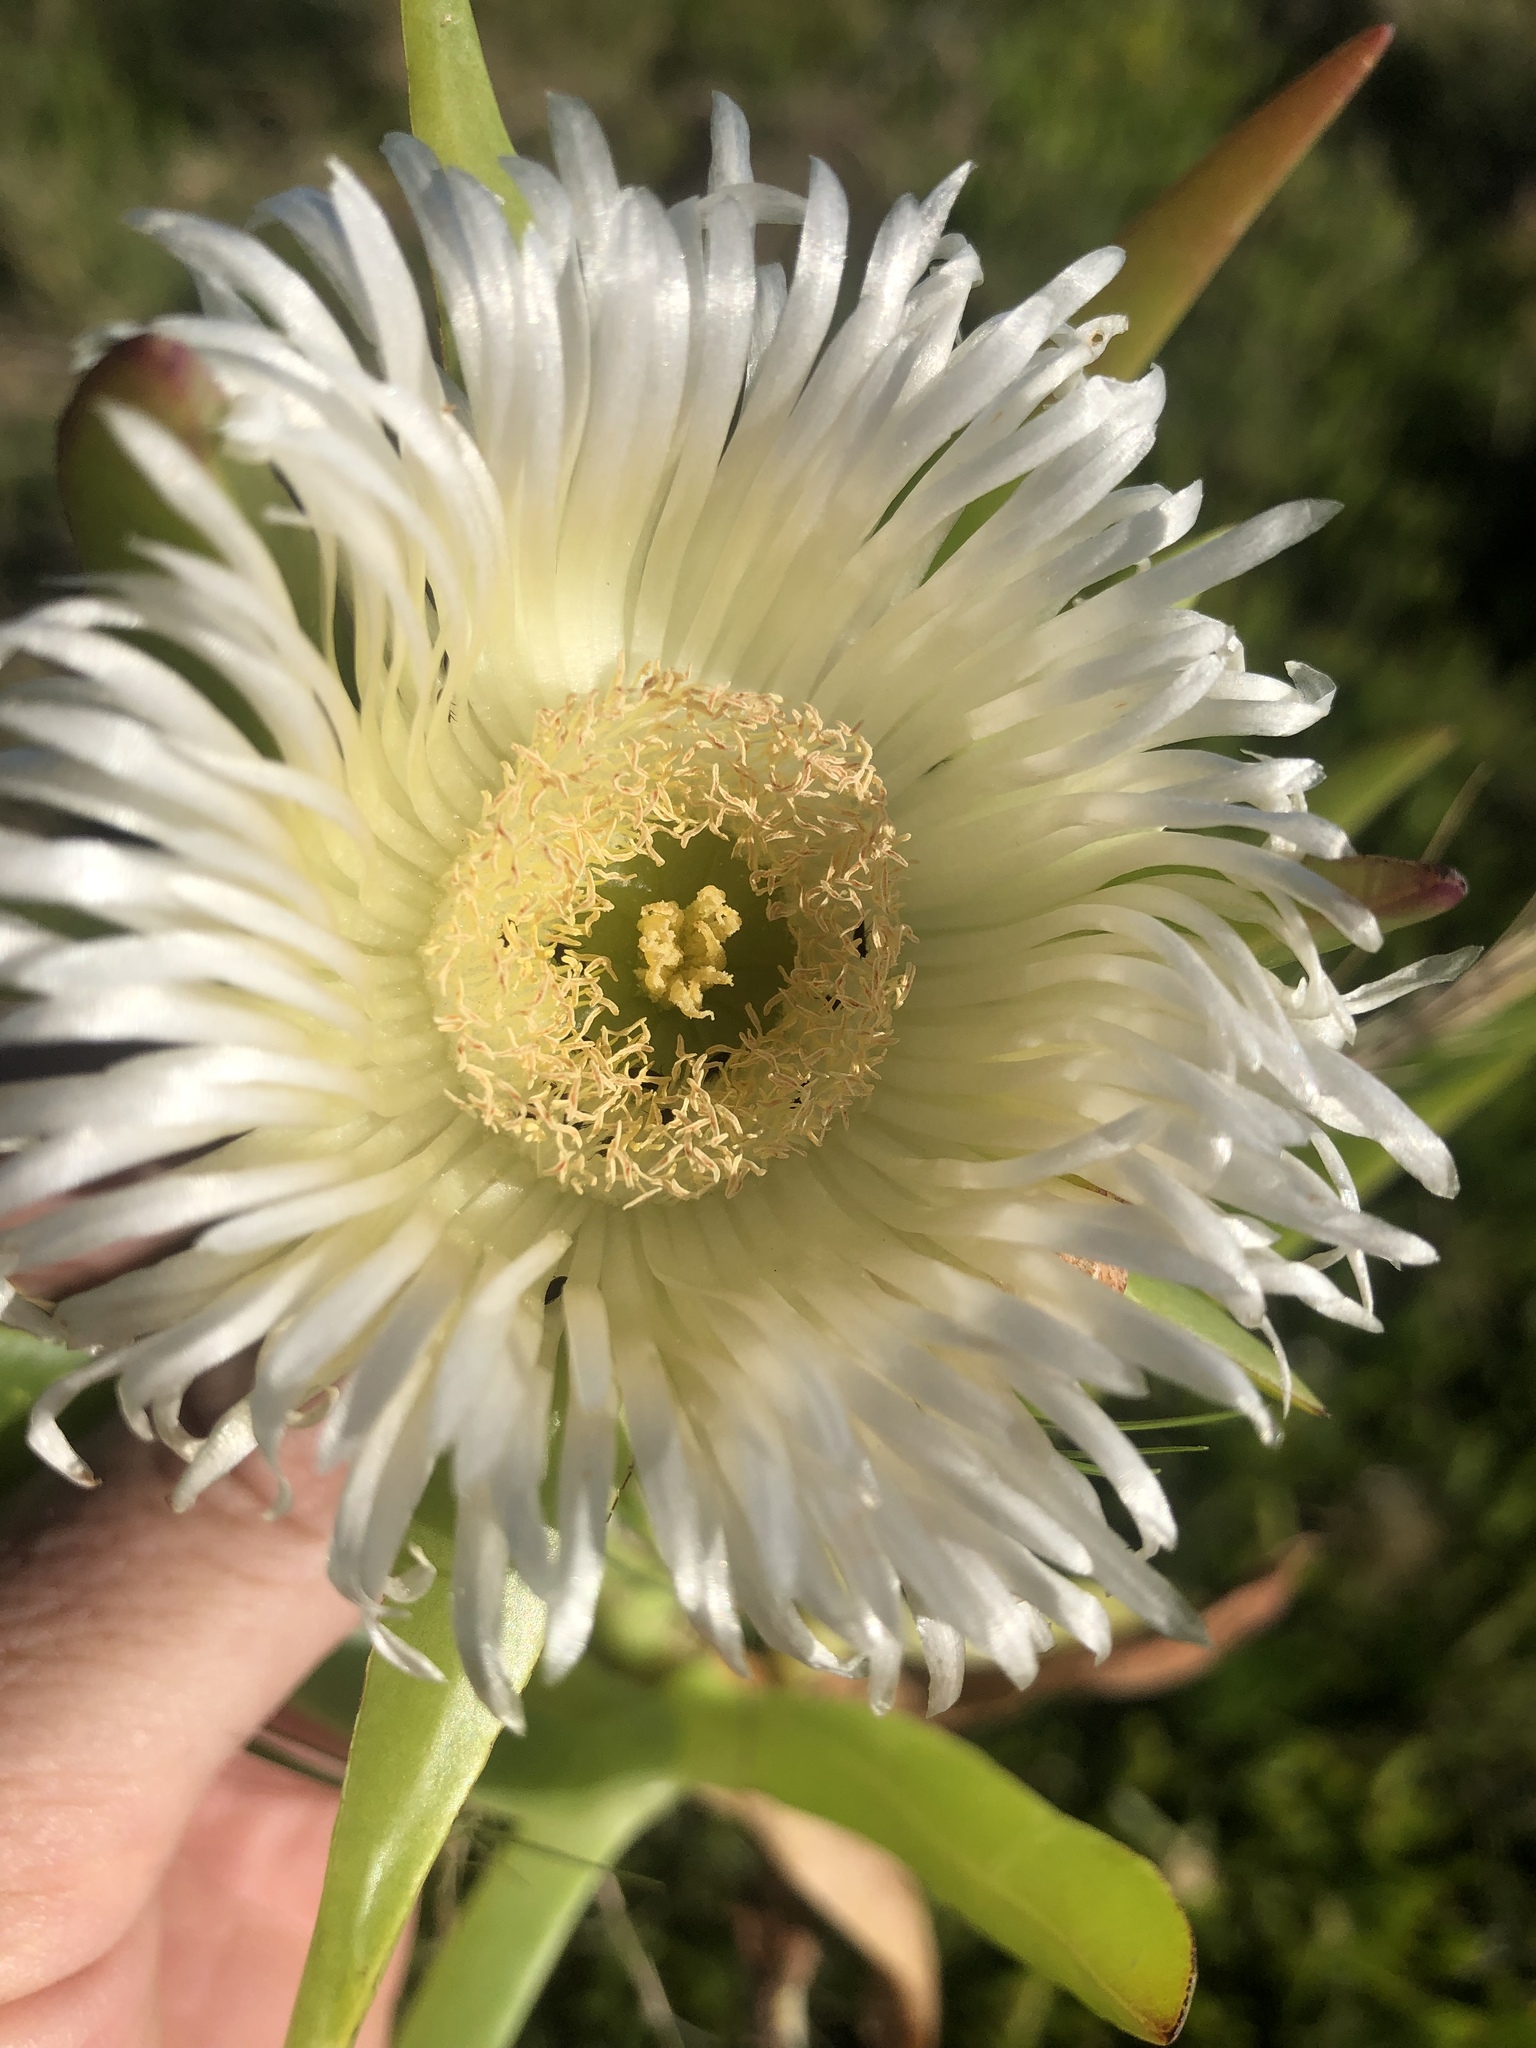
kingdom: Plantae
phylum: Tracheophyta
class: Magnoliopsida
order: Caryophyllales
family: Aizoaceae
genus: Carpobrotus
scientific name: Carpobrotus edulis
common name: Hottentot-fig
